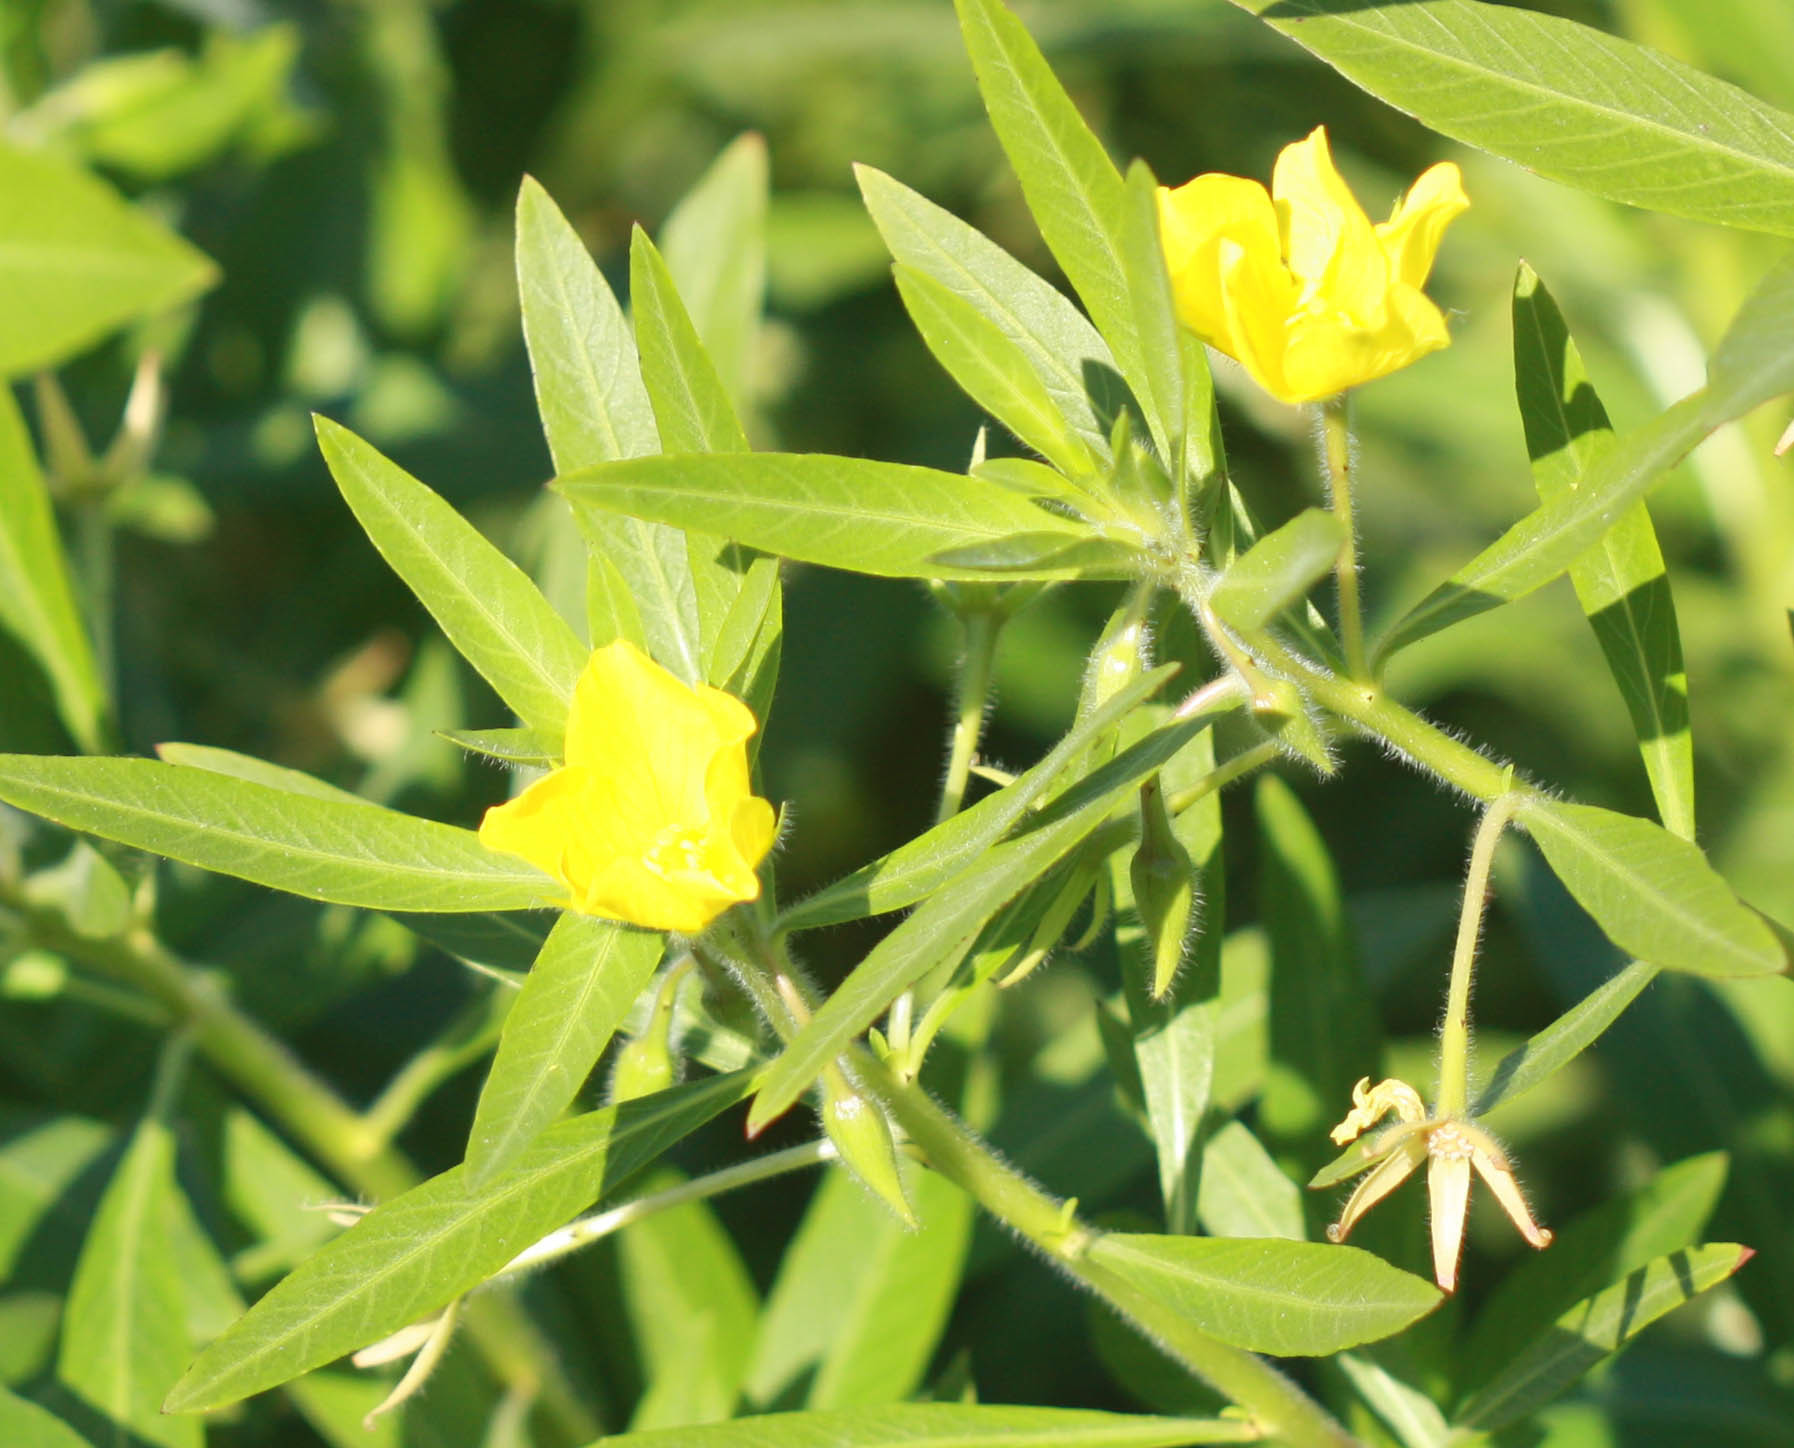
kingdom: Plantae
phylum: Tracheophyta
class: Magnoliopsida
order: Myrtales
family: Onagraceae
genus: Ludwigia
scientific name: Ludwigia hexapetala
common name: Water-primrose
